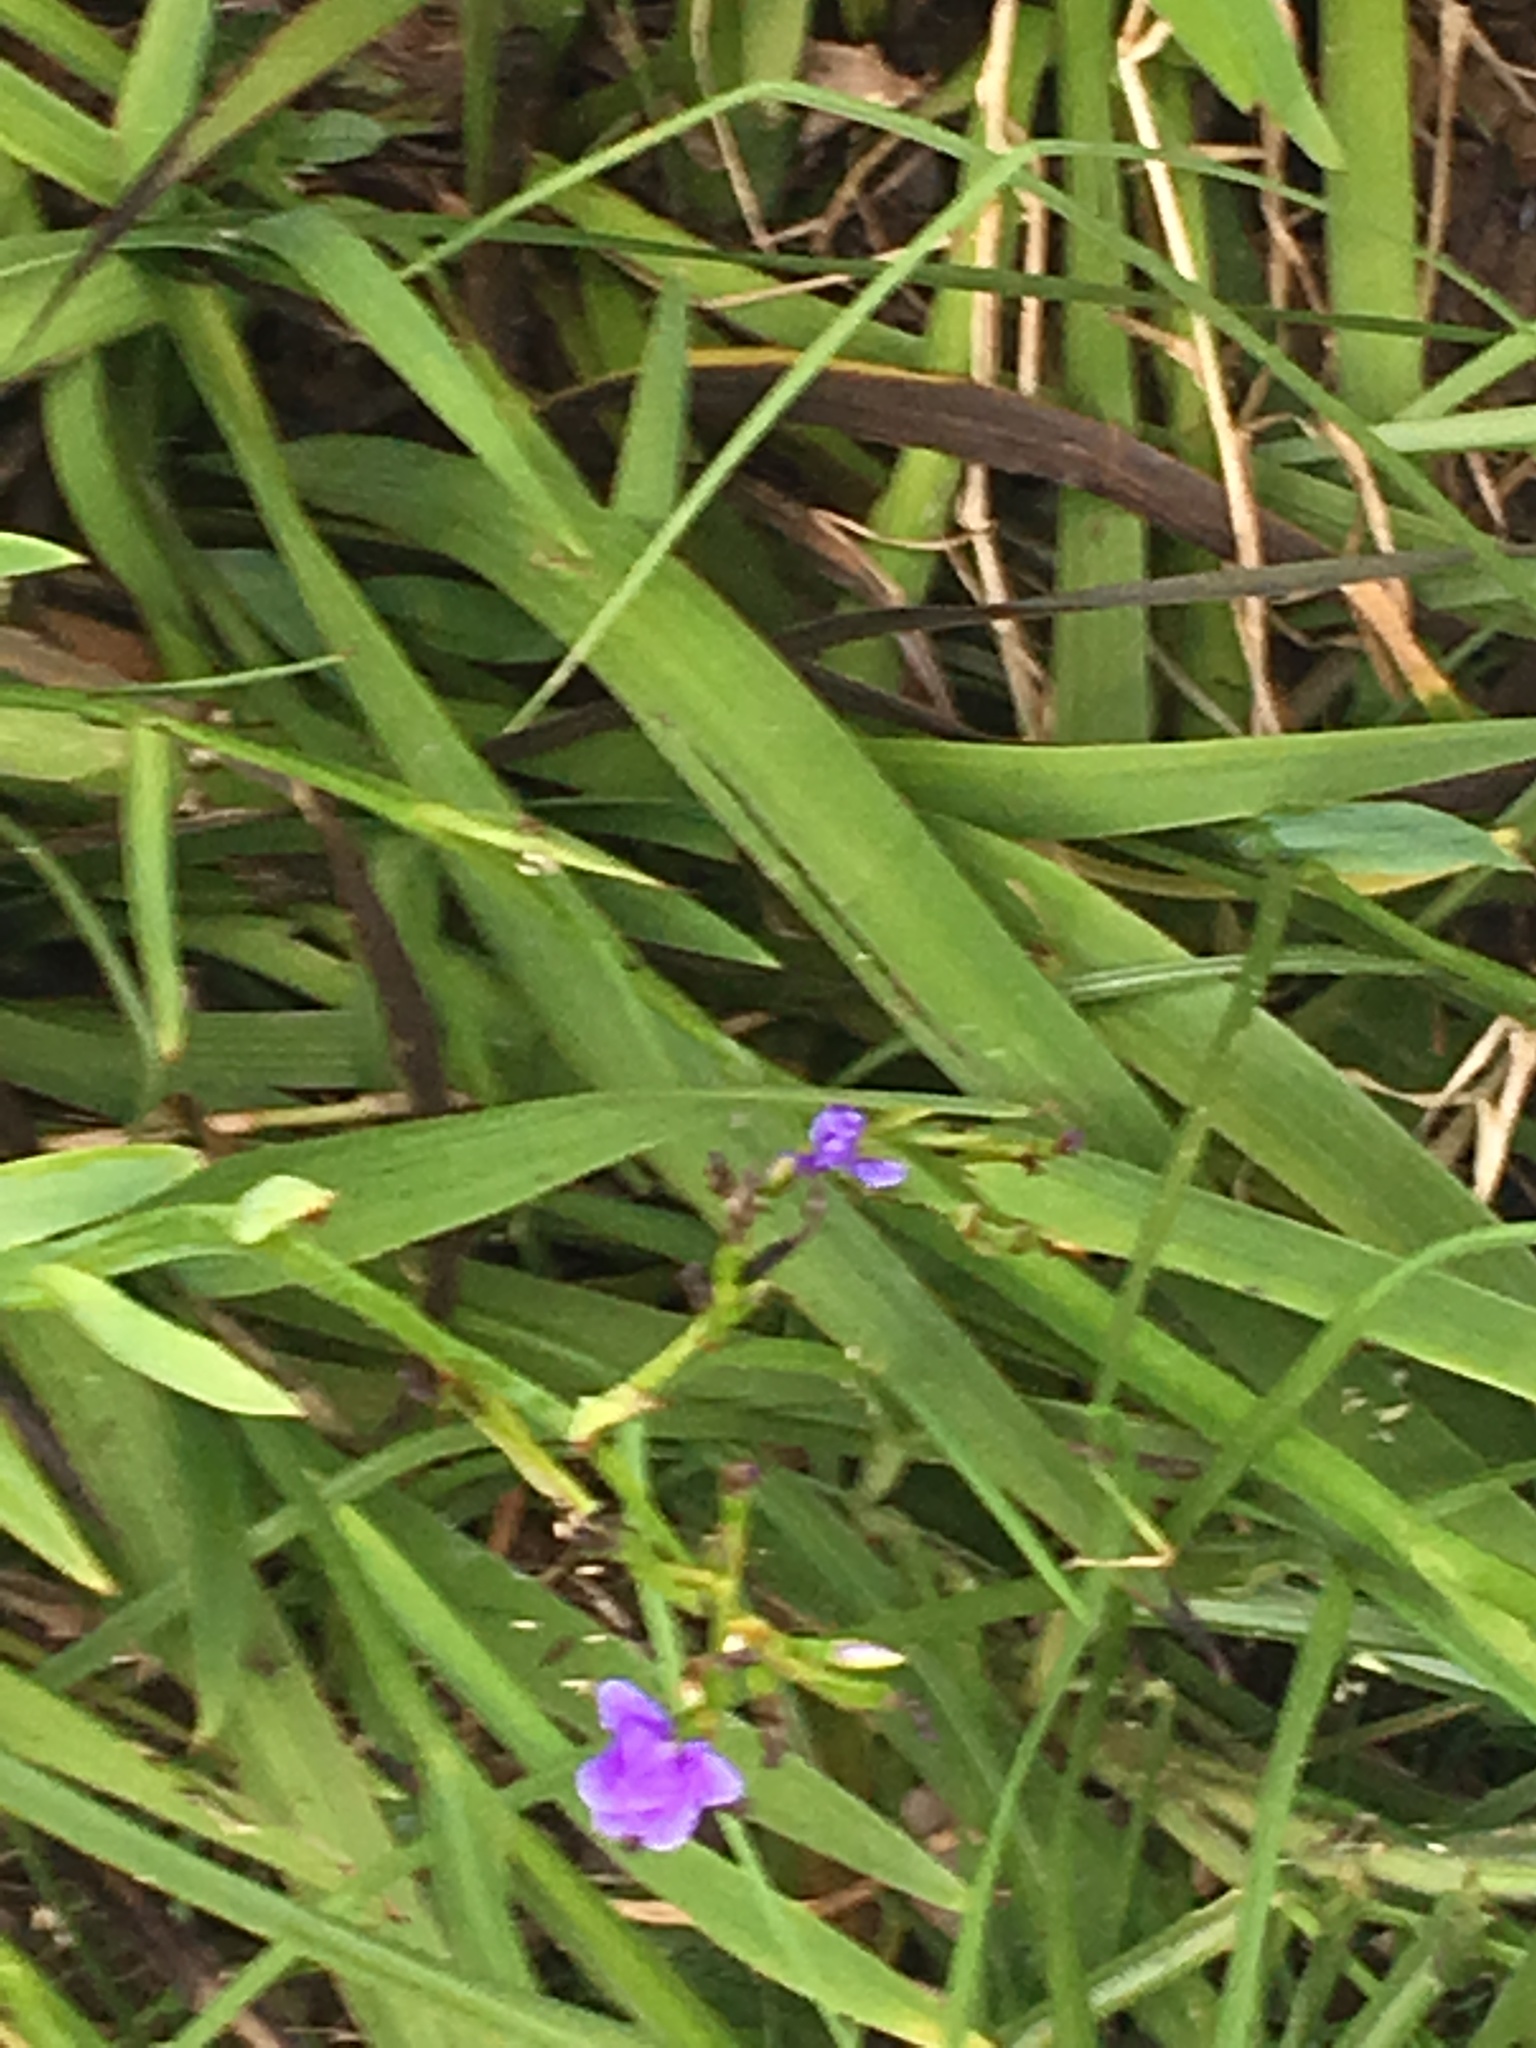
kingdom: Plantae
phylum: Tracheophyta
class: Liliopsida
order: Asparagales
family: Iridaceae
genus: Aristea
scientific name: Aristea ecklonii
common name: Blue corn-lily
